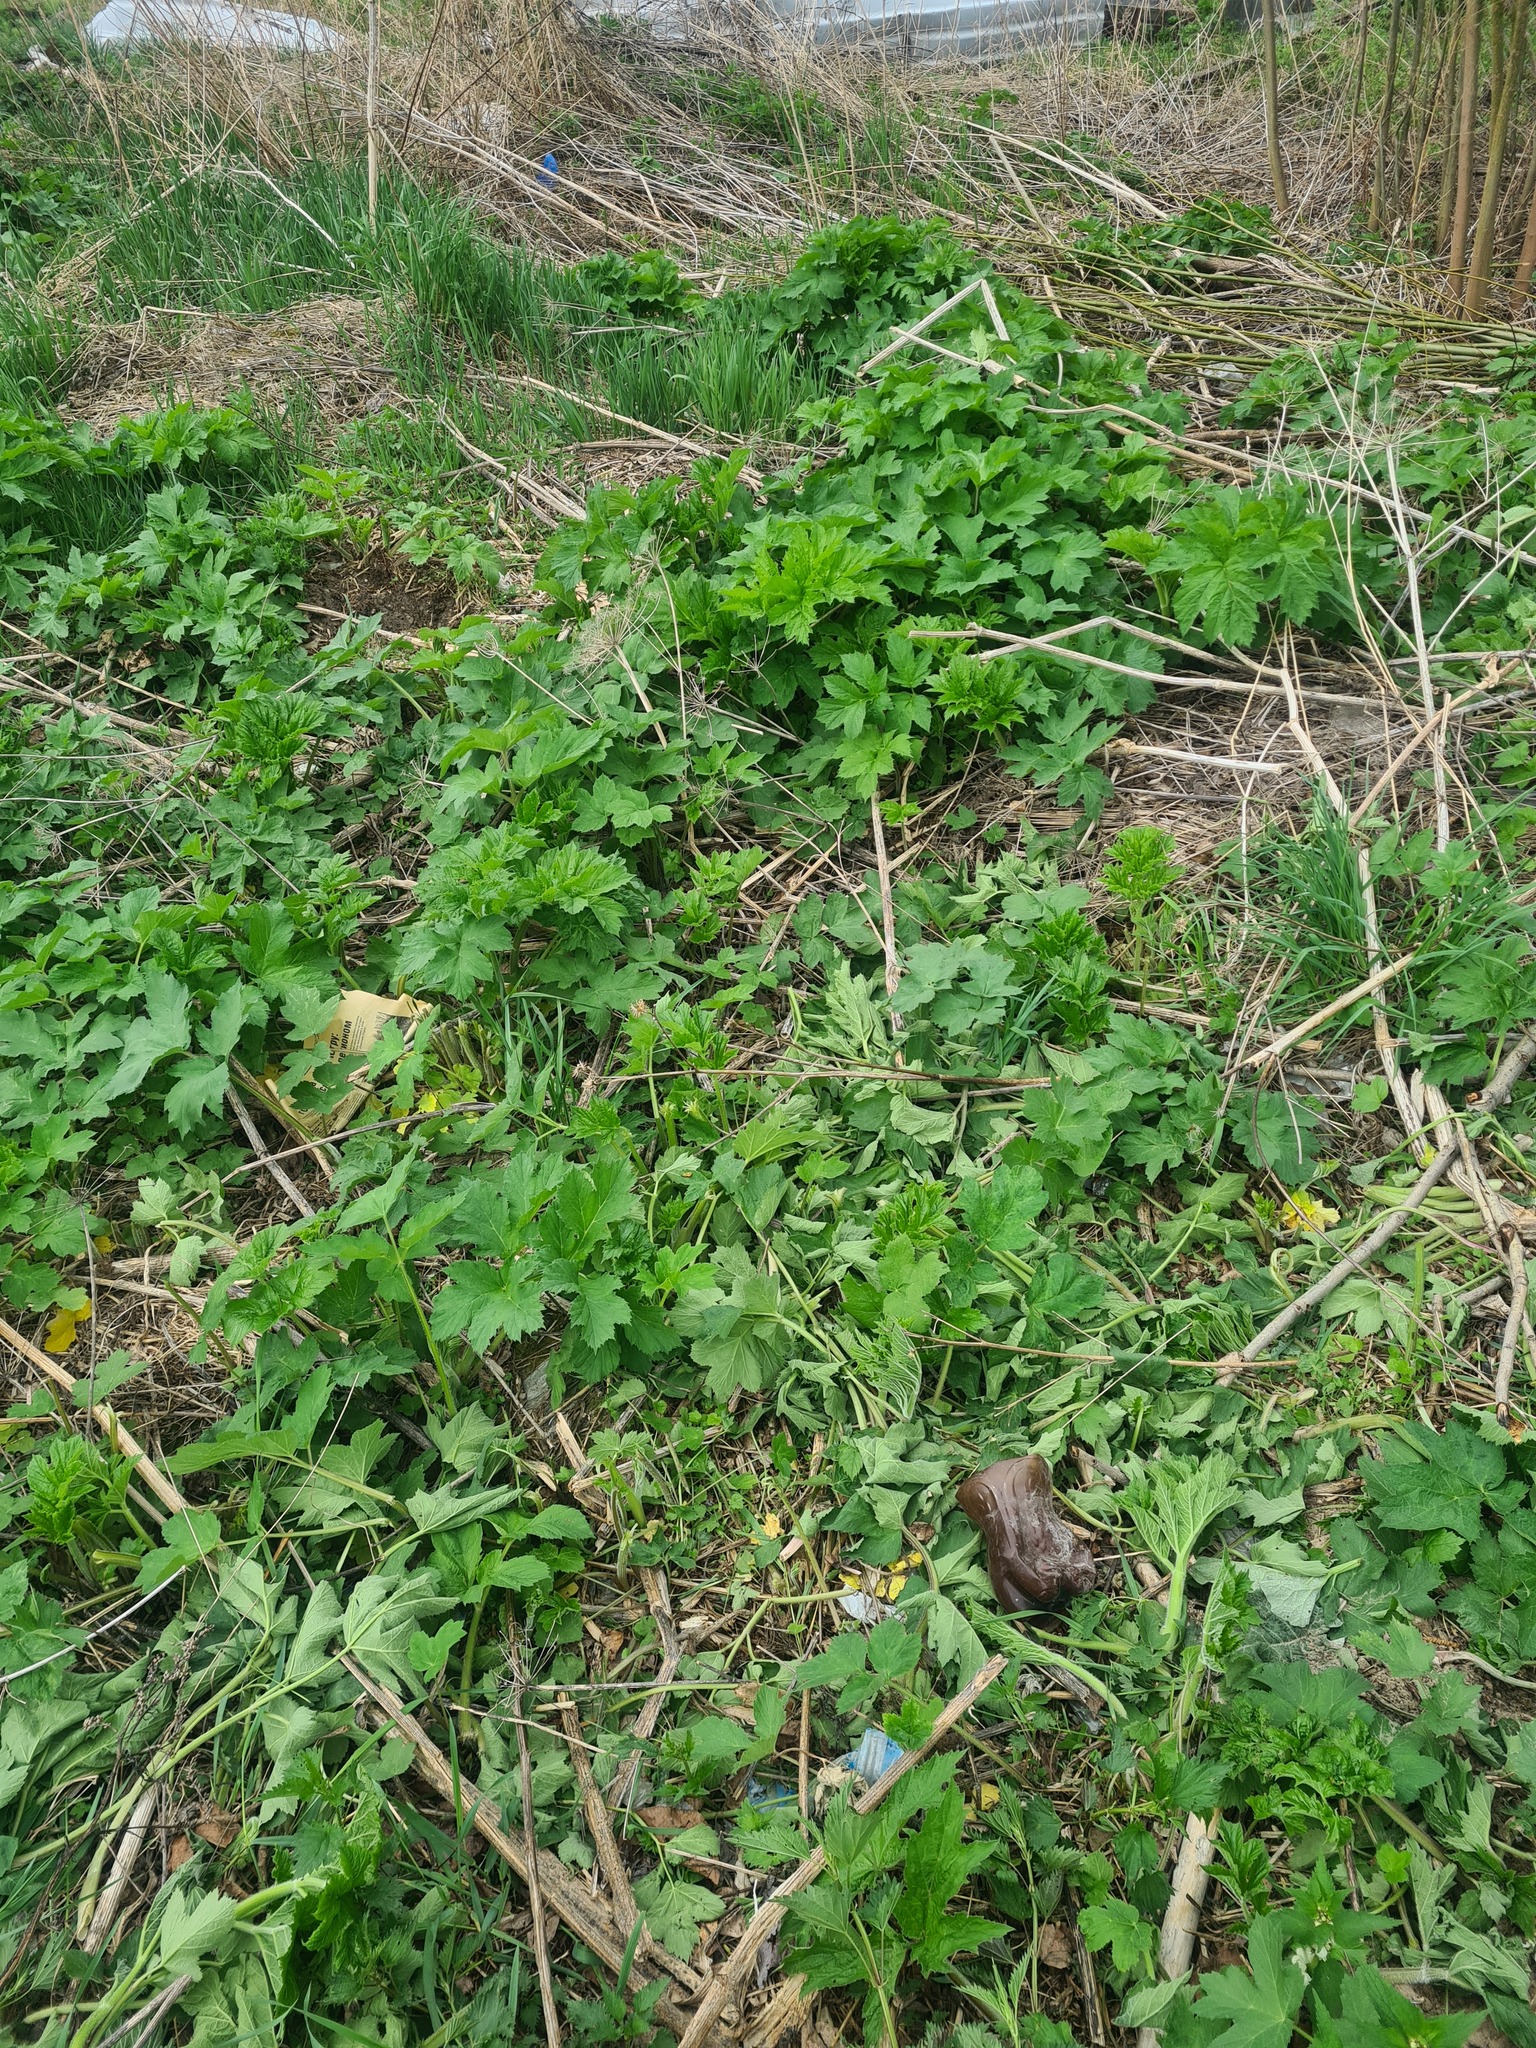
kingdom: Plantae
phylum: Tracheophyta
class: Magnoliopsida
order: Apiales
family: Apiaceae
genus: Heracleum
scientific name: Heracleum sphondylium
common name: Hogweed
